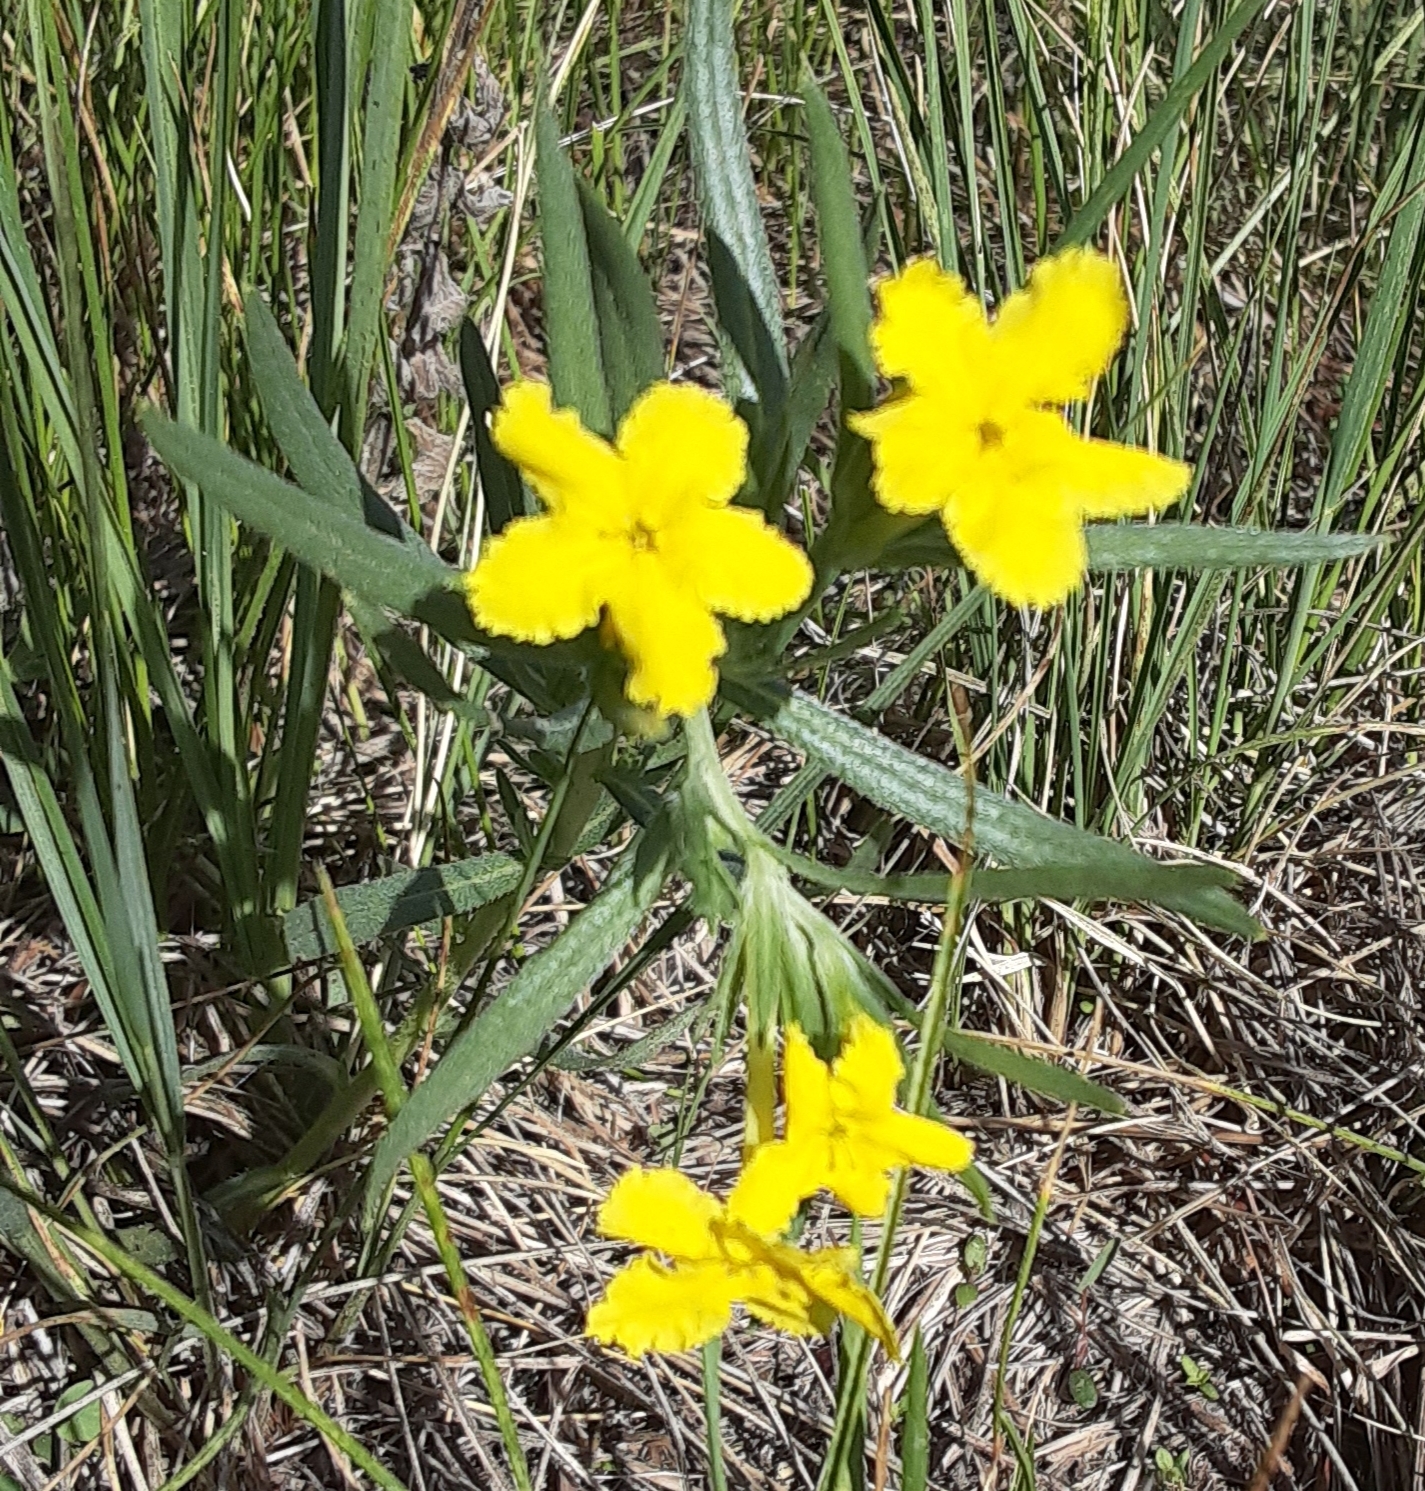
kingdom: Plantae
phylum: Tracheophyta
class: Magnoliopsida
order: Boraginales
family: Boraginaceae
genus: Lithospermum
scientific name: Lithospermum incisum
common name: Fringed gromwell
